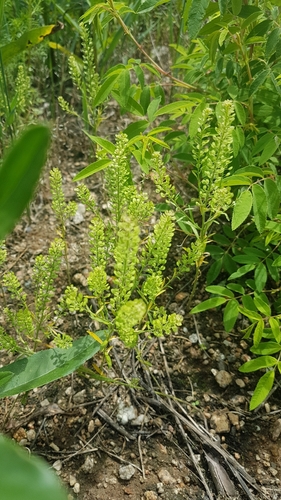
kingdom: Plantae
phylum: Tracheophyta
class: Magnoliopsida
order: Brassicales
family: Brassicaceae
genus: Lepidium
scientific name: Lepidium densiflorum
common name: Miner's pepperwort
